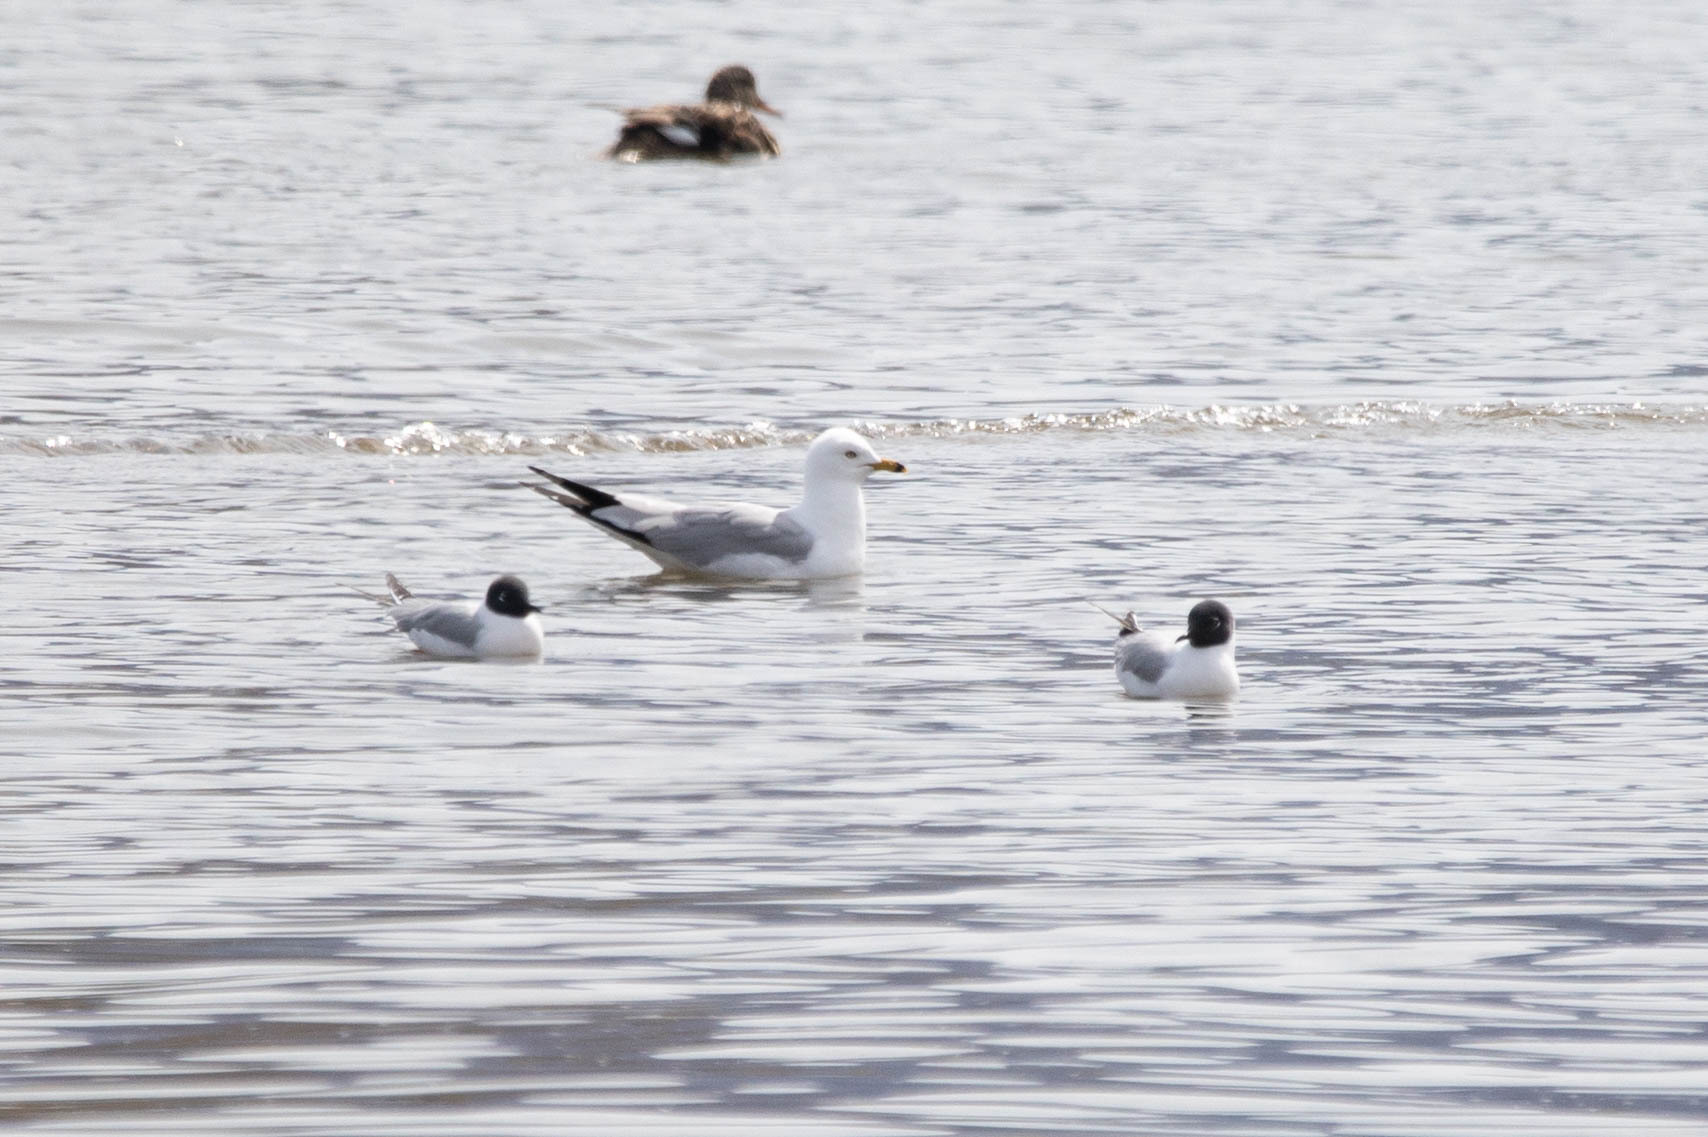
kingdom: Animalia
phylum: Chordata
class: Aves
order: Charadriiformes
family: Laridae
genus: Chroicocephalus
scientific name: Chroicocephalus philadelphia
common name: Bonaparte's gull
